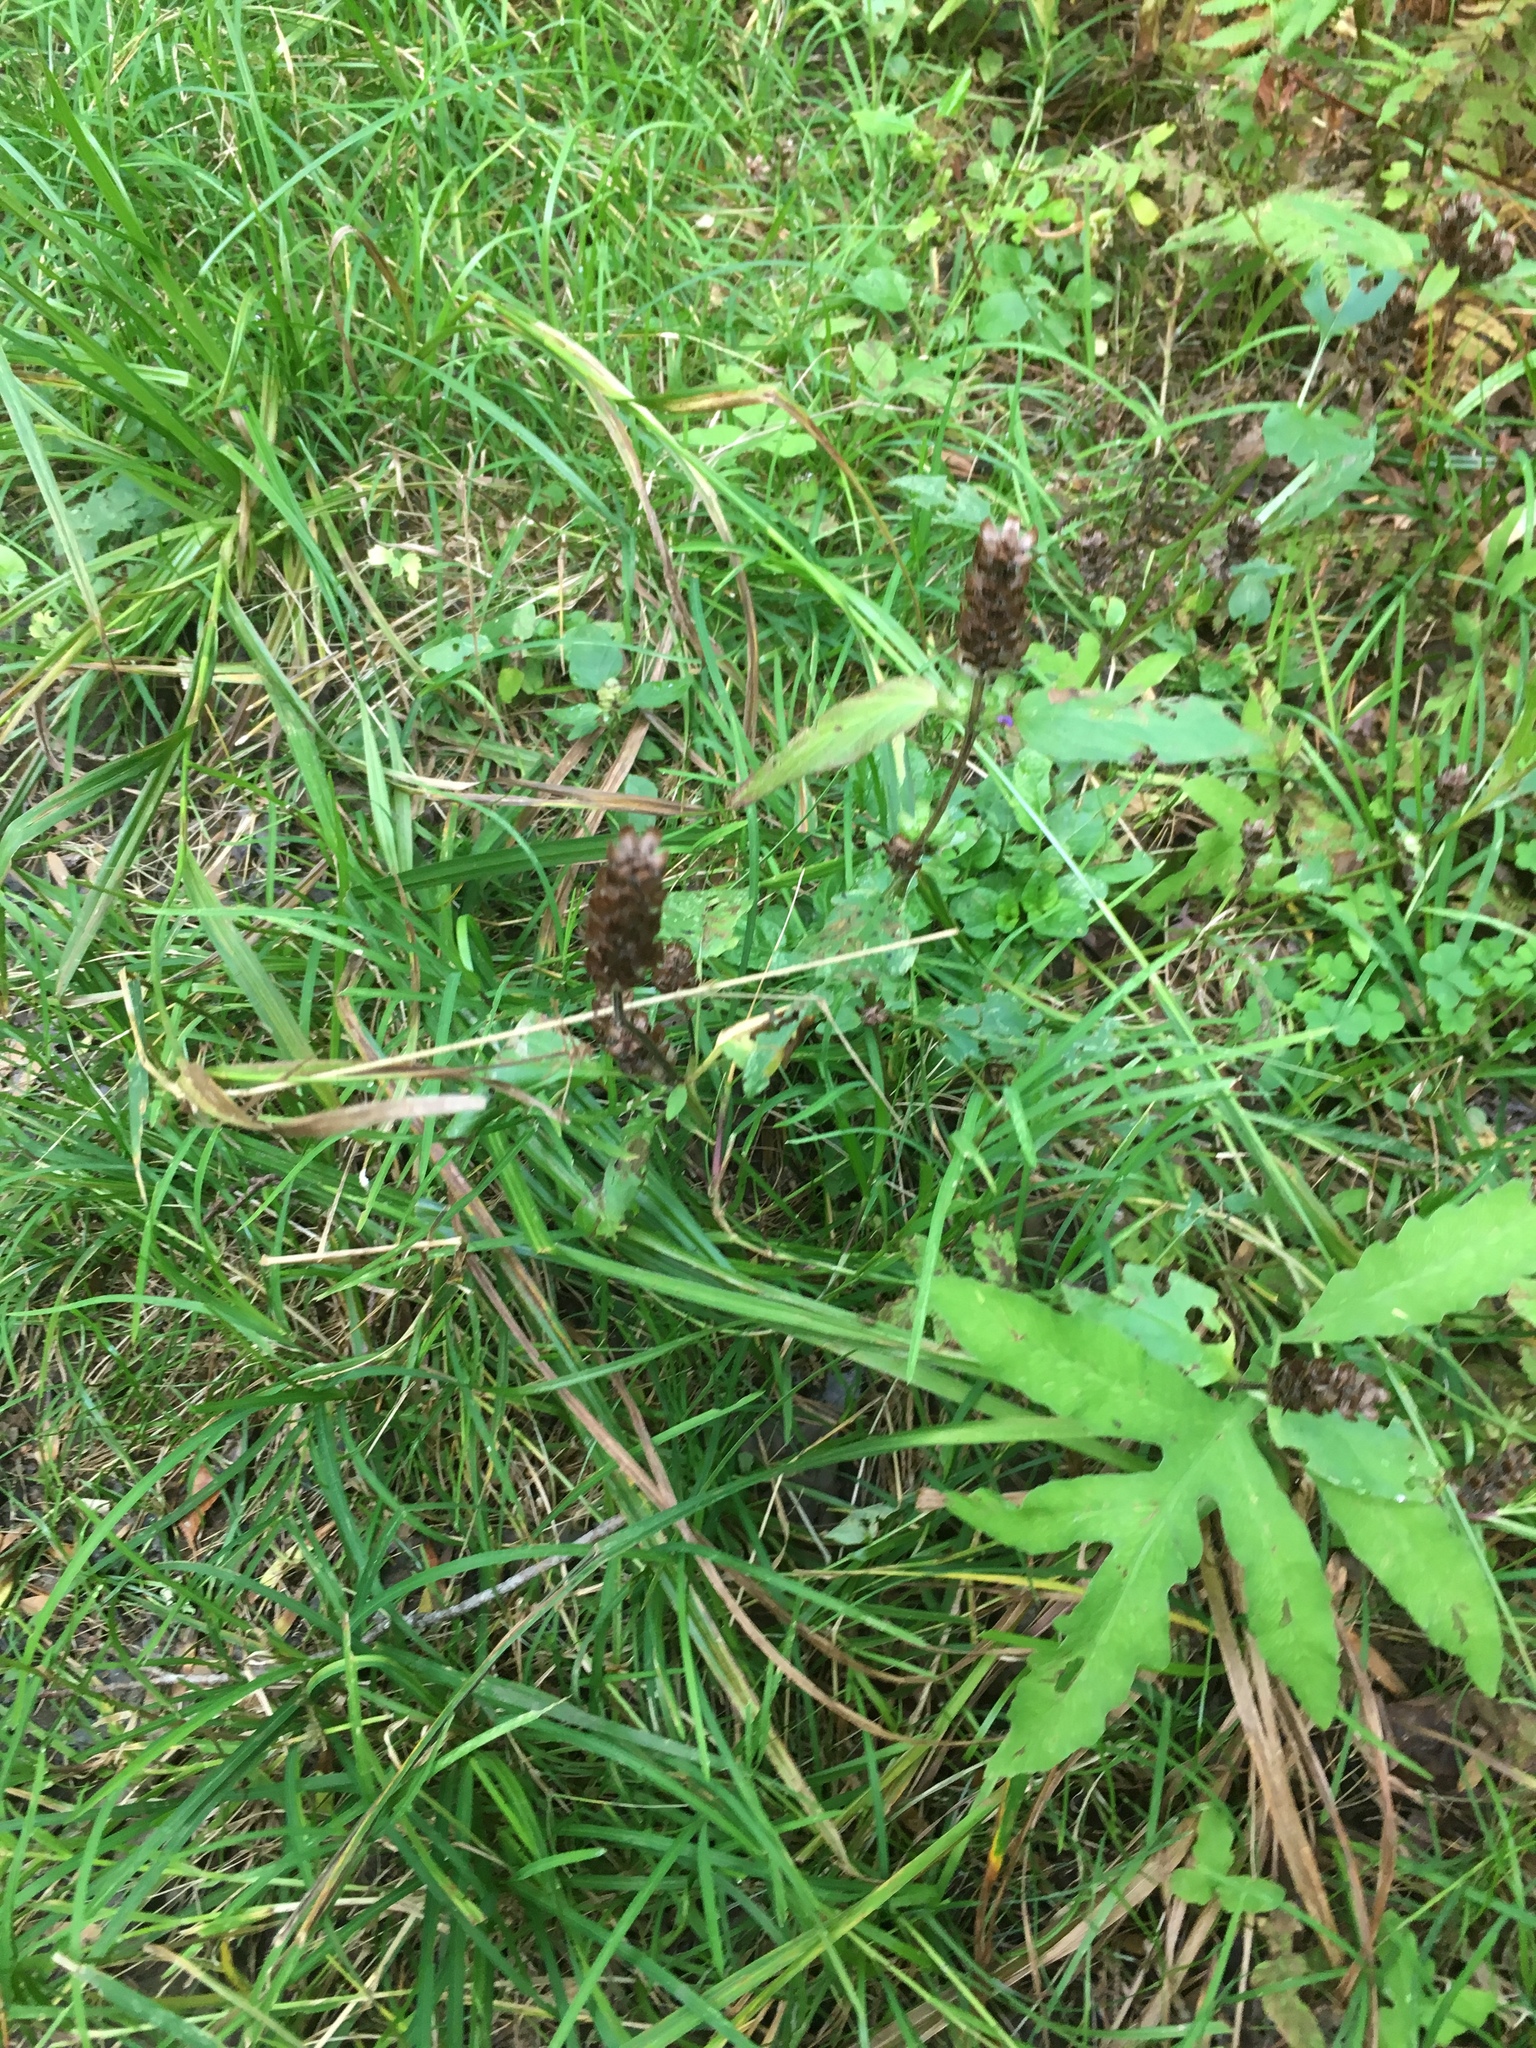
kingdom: Plantae
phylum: Tracheophyta
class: Magnoliopsida
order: Lamiales
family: Lamiaceae
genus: Prunella
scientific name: Prunella vulgaris
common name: Heal-all
